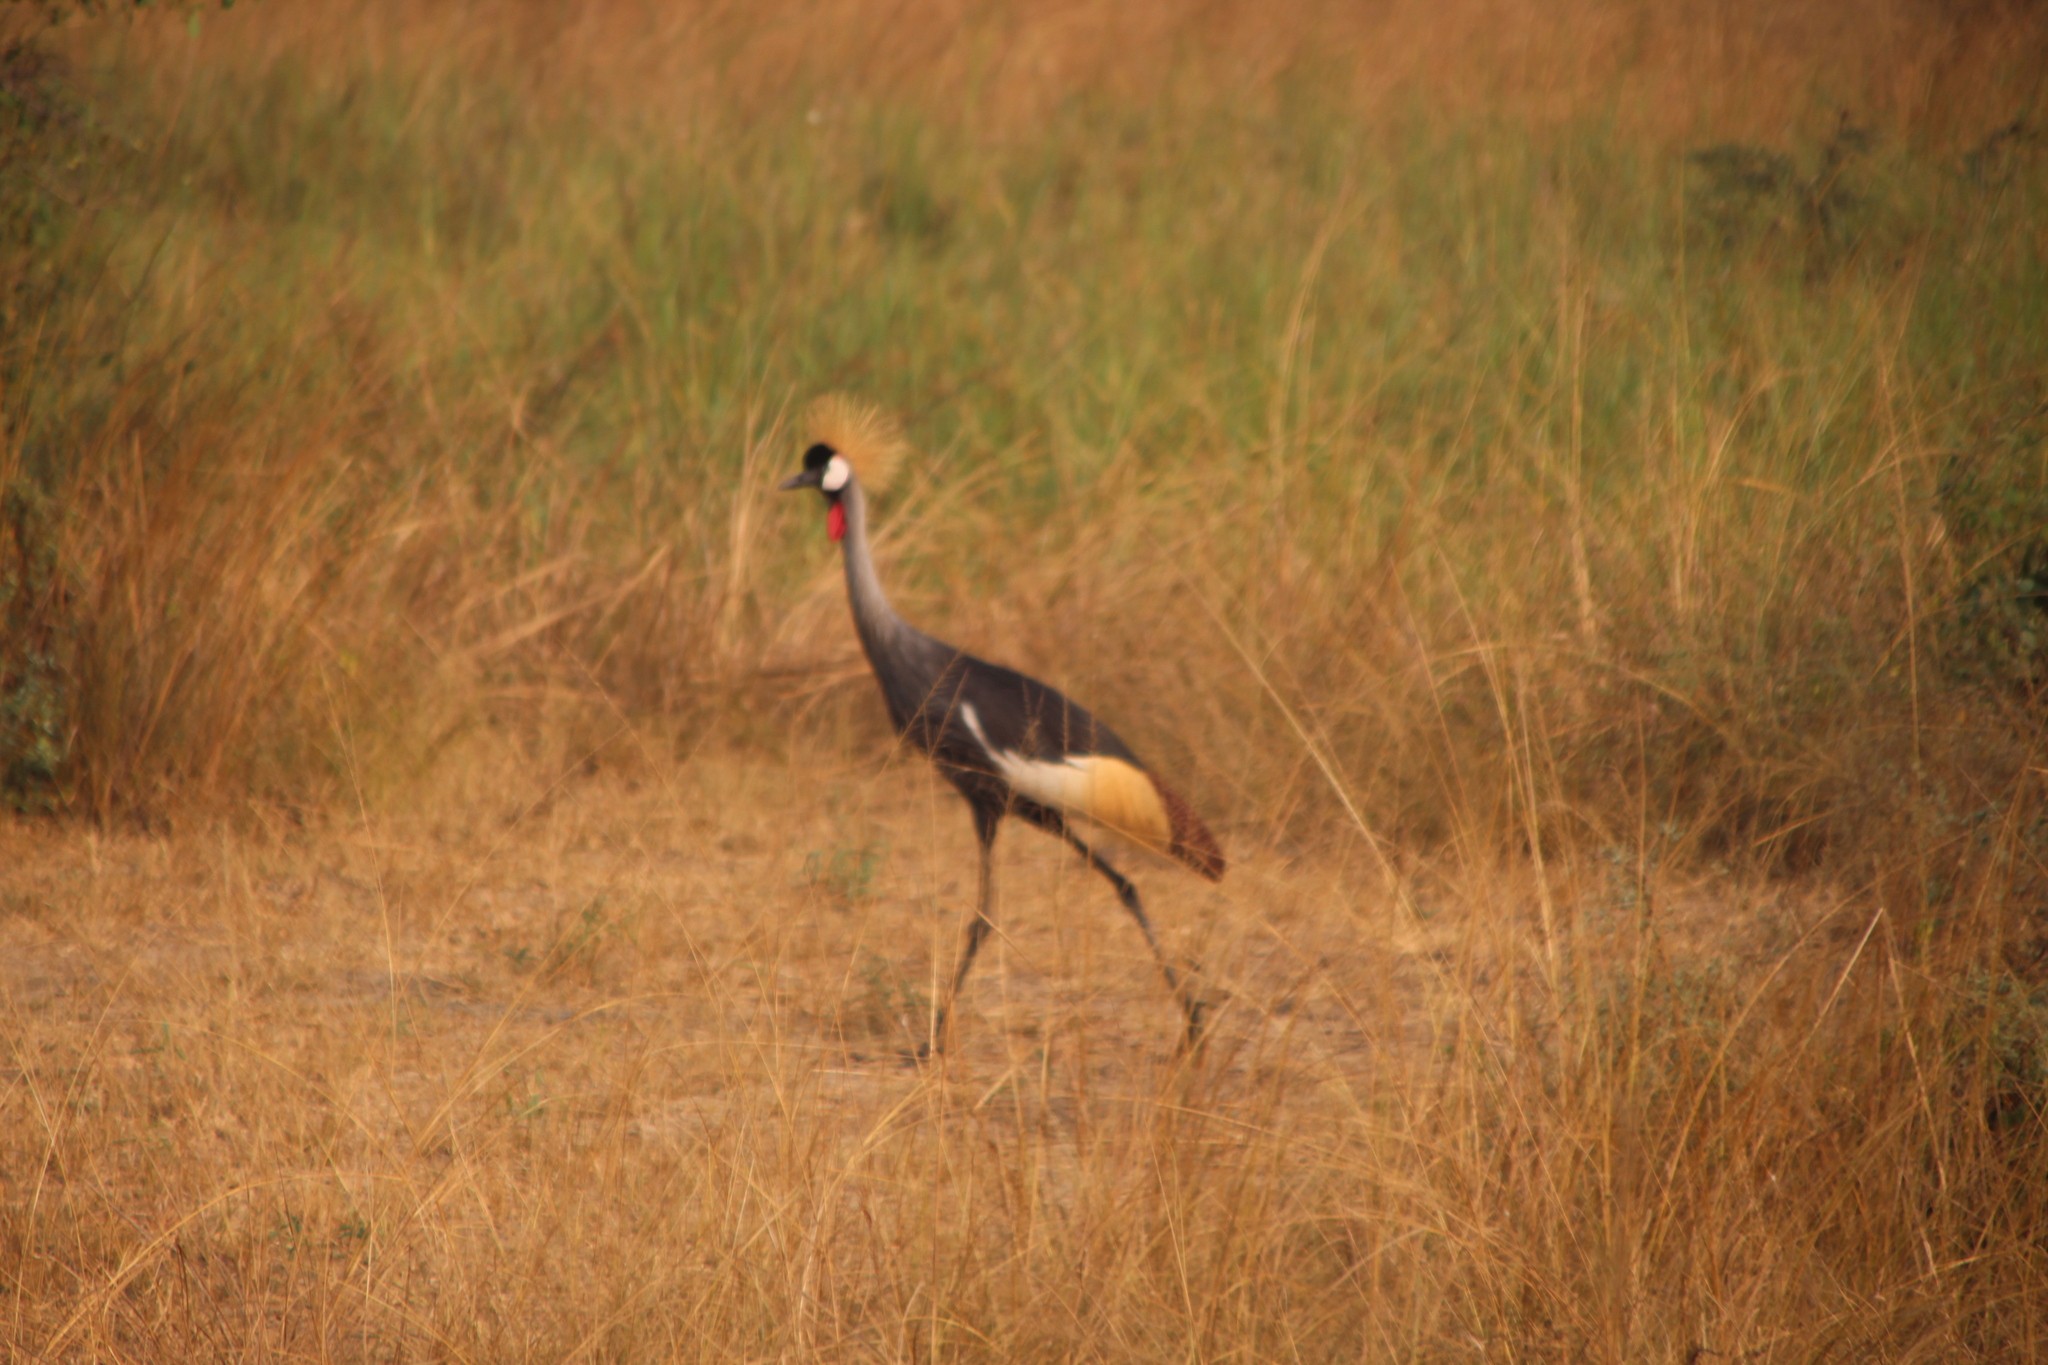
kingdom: Animalia
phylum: Chordata
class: Aves
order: Gruiformes
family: Gruidae
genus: Balearica
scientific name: Balearica regulorum
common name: Grey crowned crane
